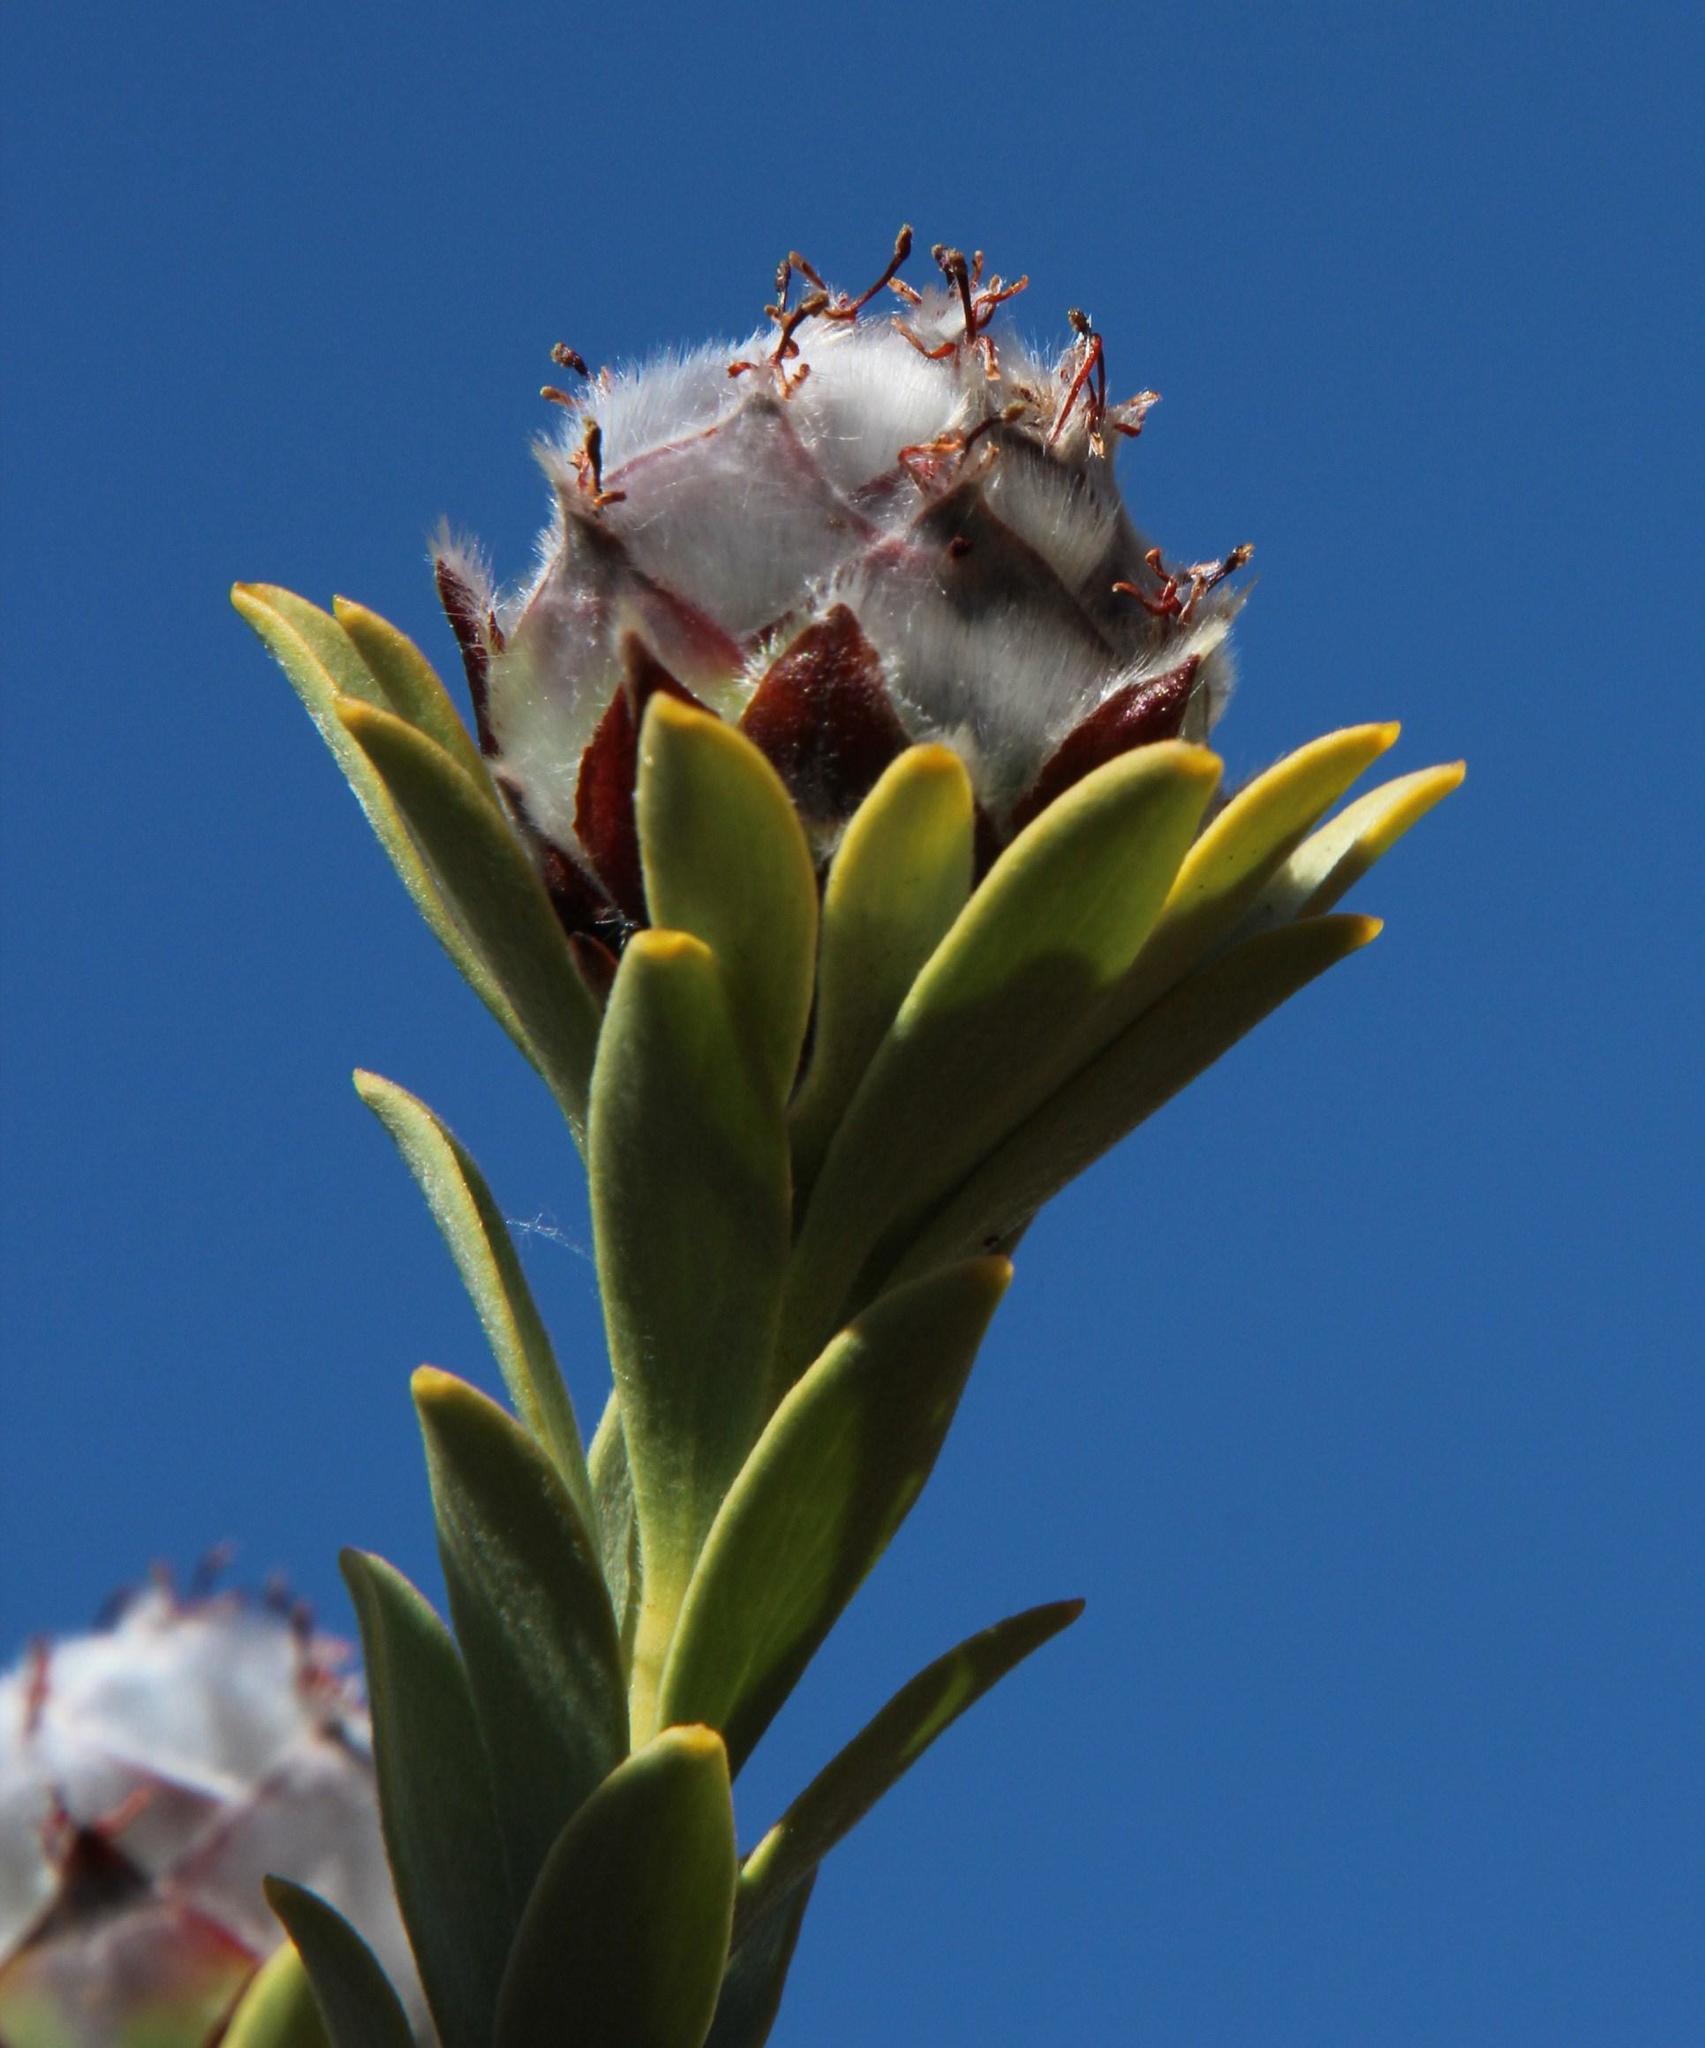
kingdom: Plantae
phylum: Tracheophyta
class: Magnoliopsida
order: Proteales
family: Proteaceae
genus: Leucadendron
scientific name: Leucadendron dubium
